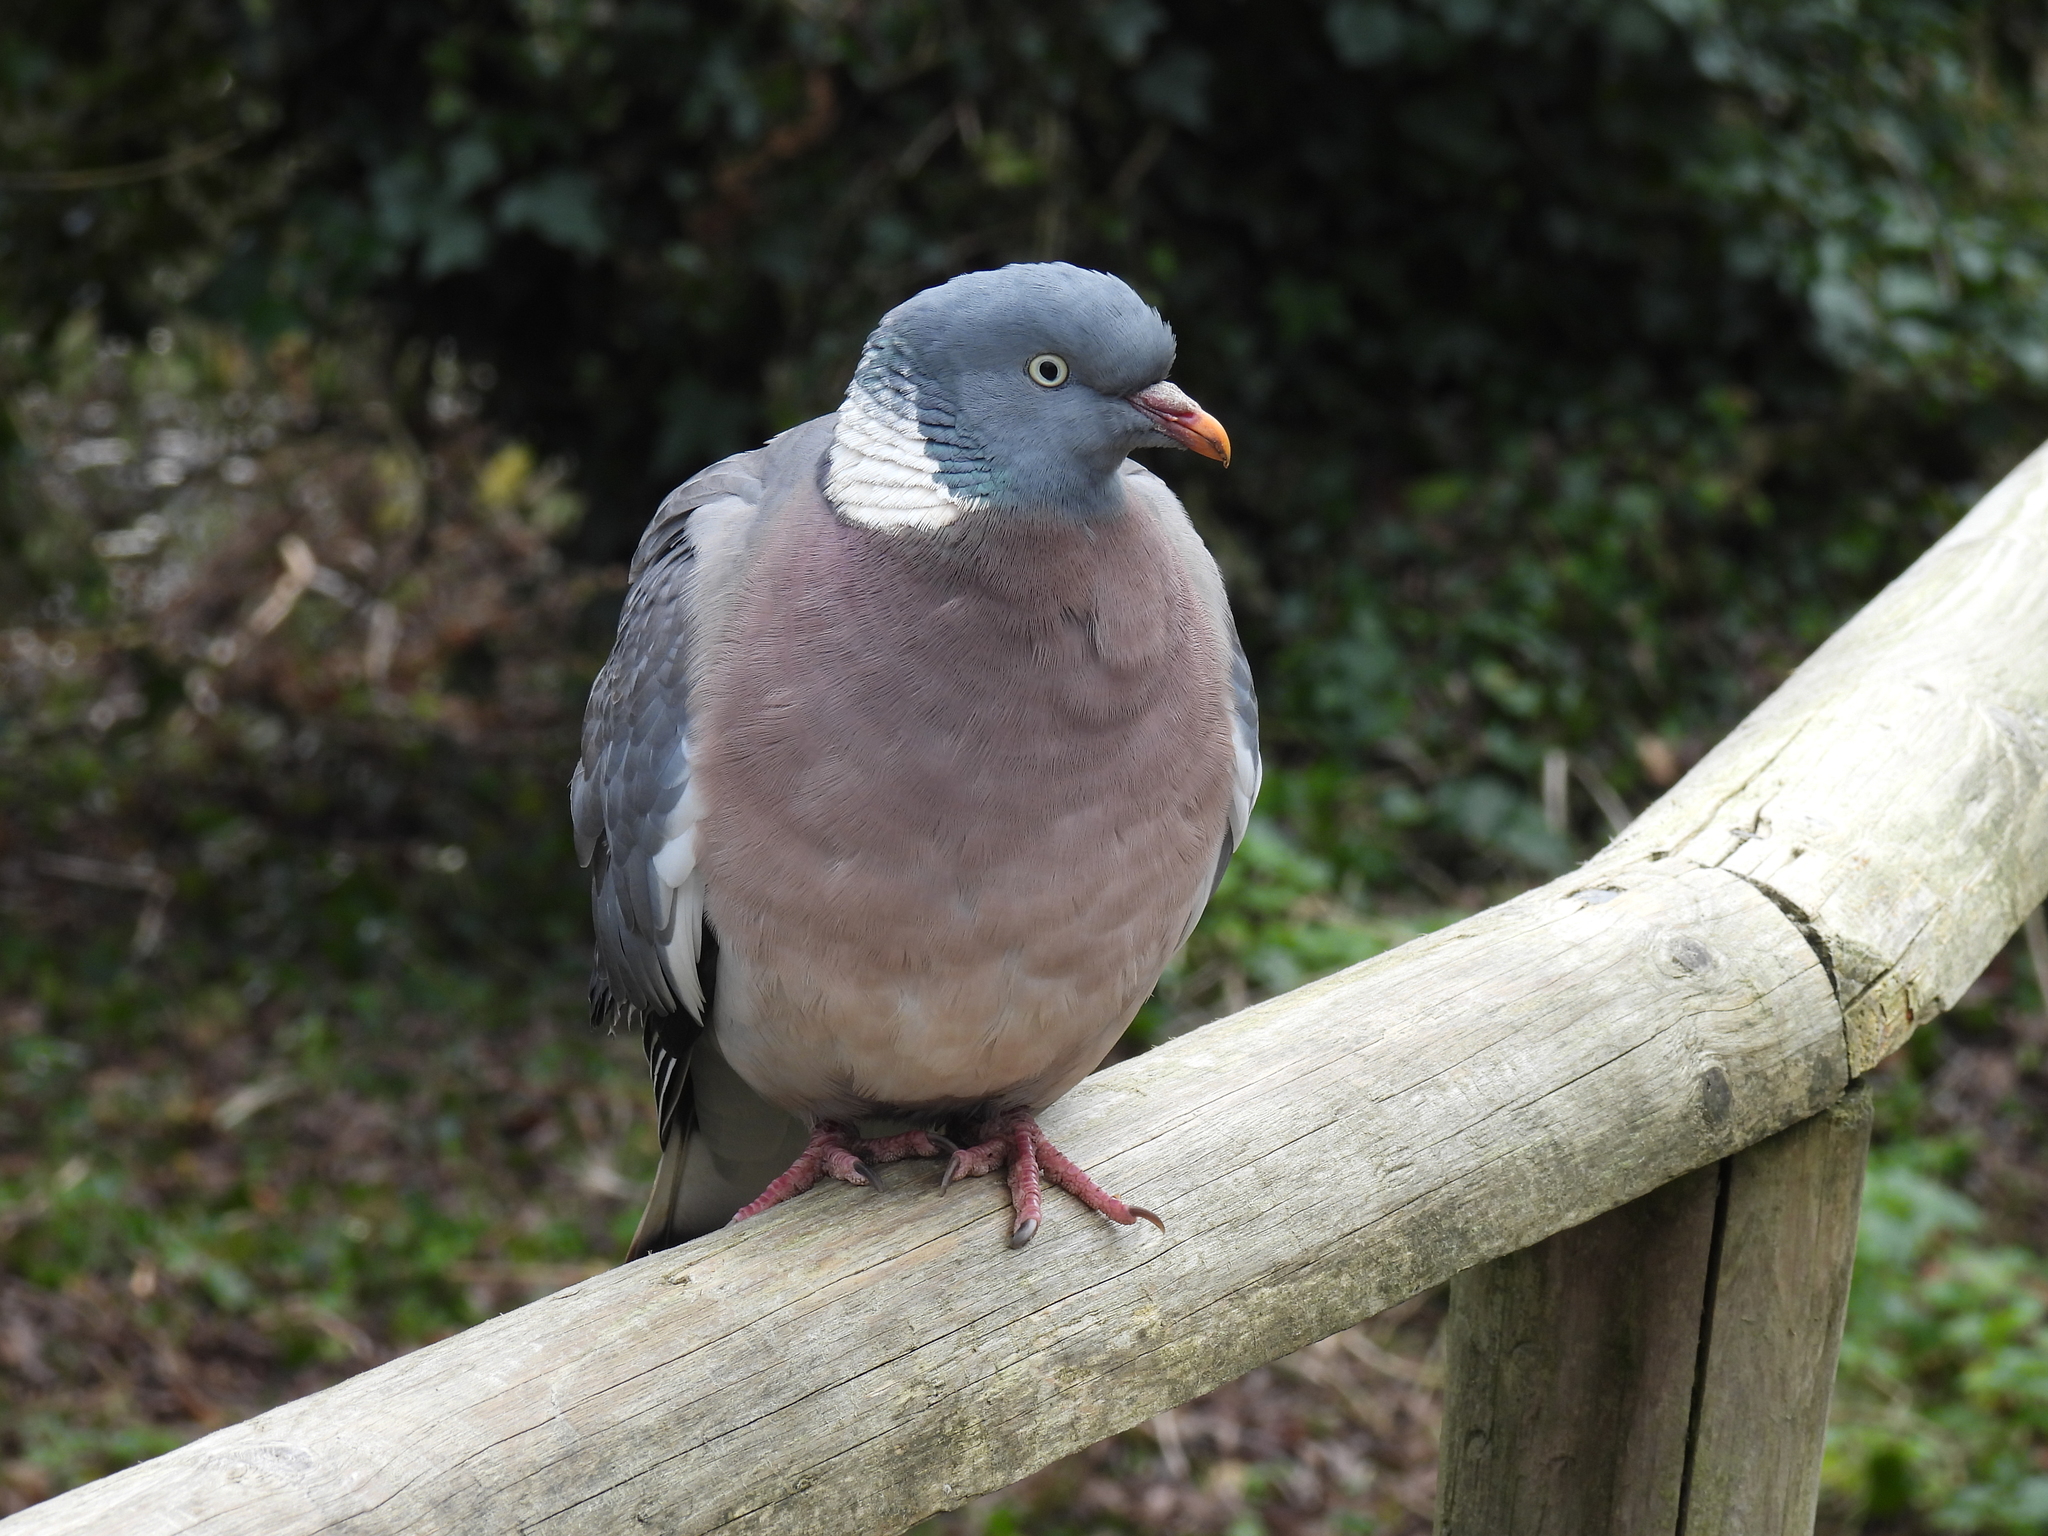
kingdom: Animalia
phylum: Chordata
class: Aves
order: Columbiformes
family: Columbidae
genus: Columba
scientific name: Columba palumbus
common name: Common wood pigeon
